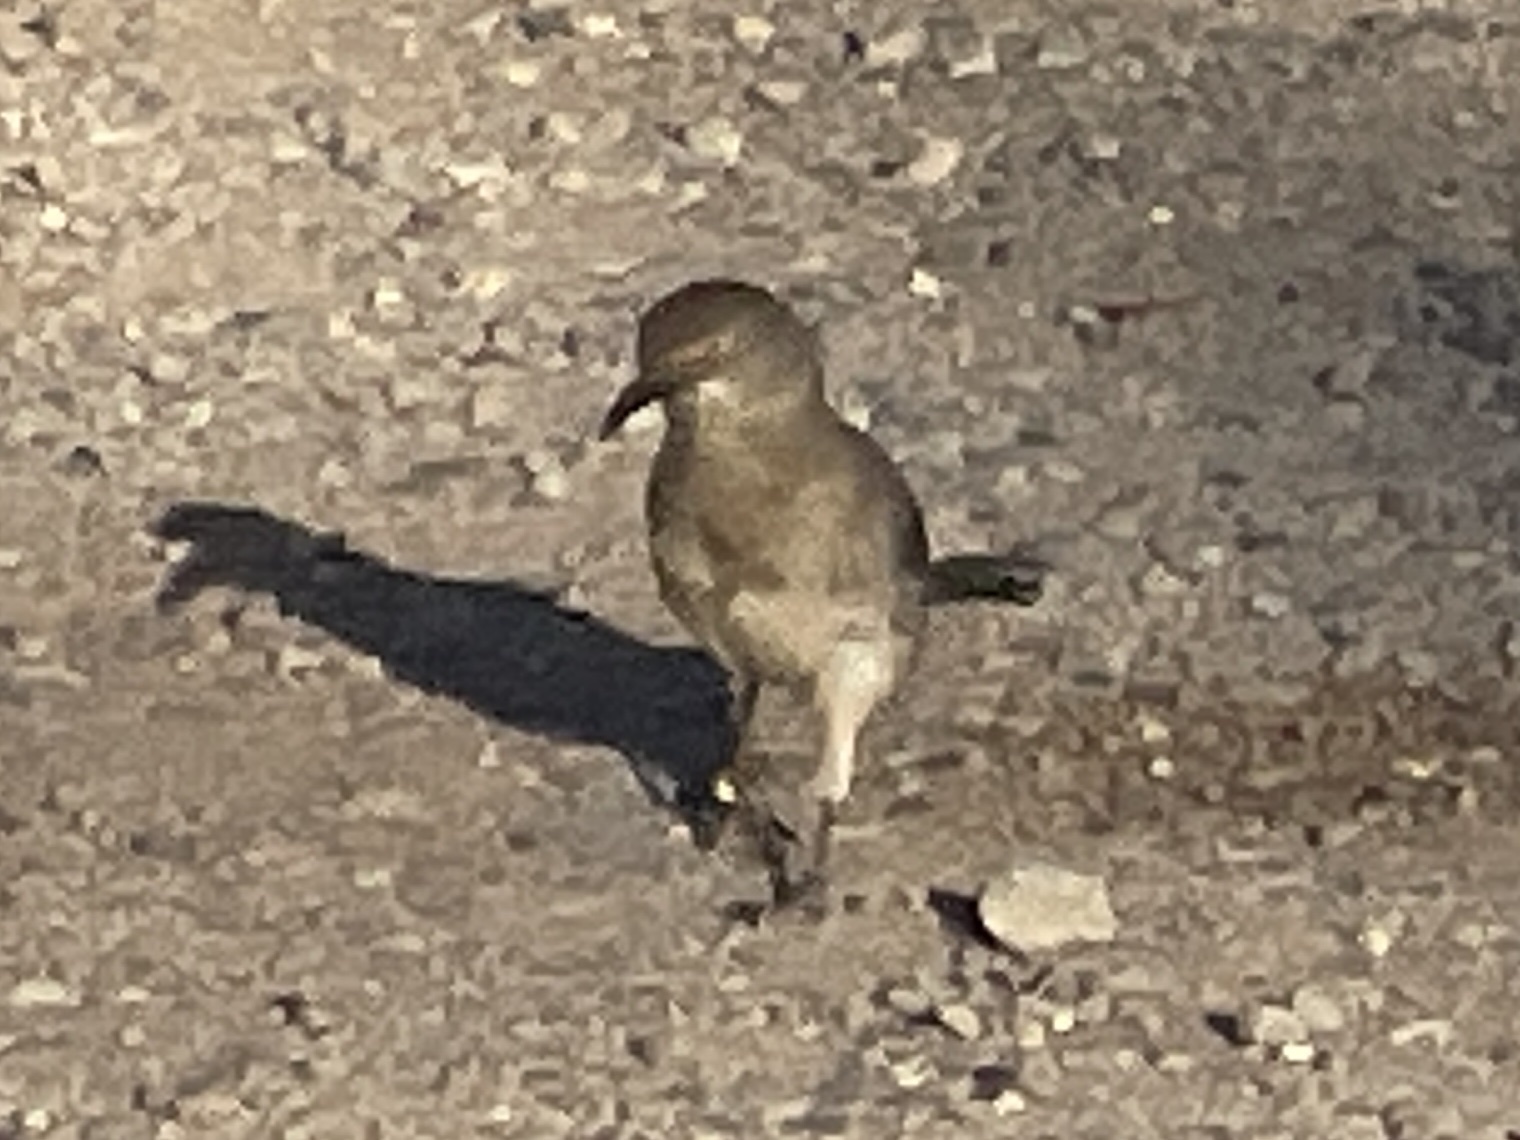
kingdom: Animalia
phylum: Chordata
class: Aves
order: Passeriformes
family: Mimidae
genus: Toxostoma
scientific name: Toxostoma curvirostre
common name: Curve-billed thrasher
